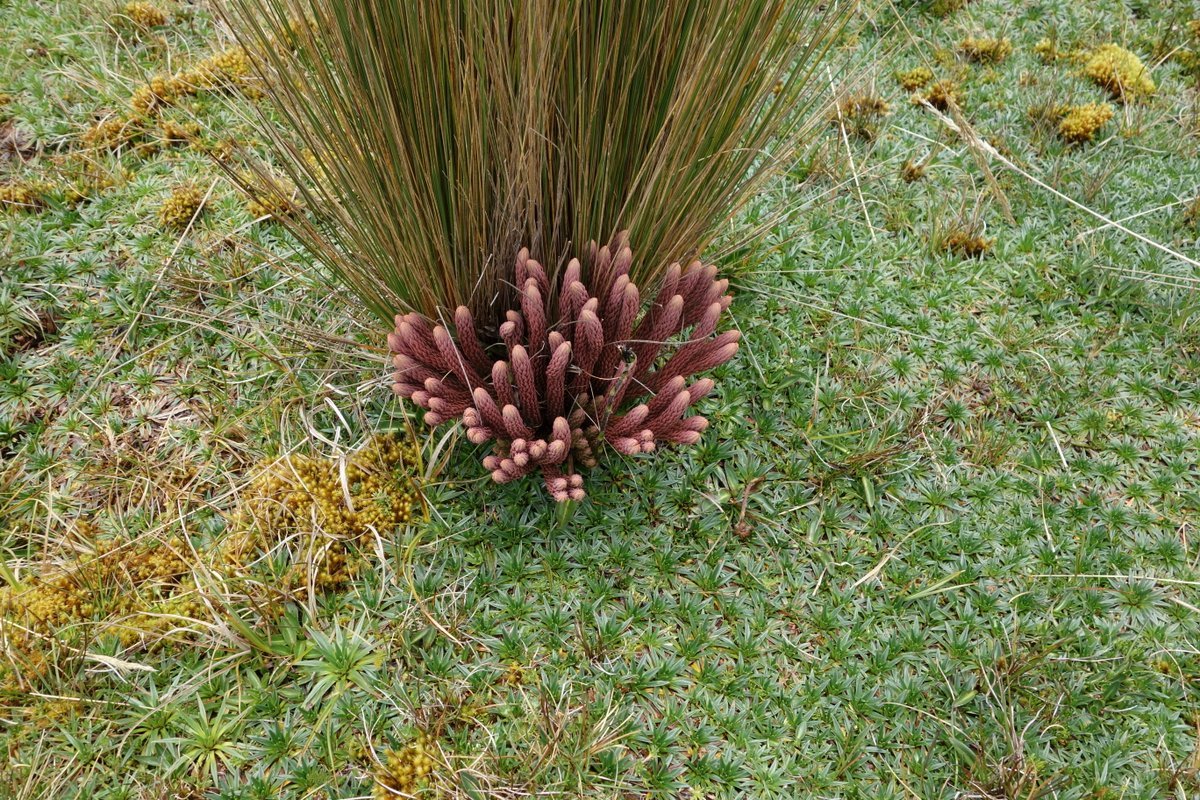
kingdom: Plantae
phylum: Tracheophyta
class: Lycopodiopsida
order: Lycopodiales
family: Lycopodiaceae
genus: Phlegmariurus
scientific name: Phlegmariurus crassus
